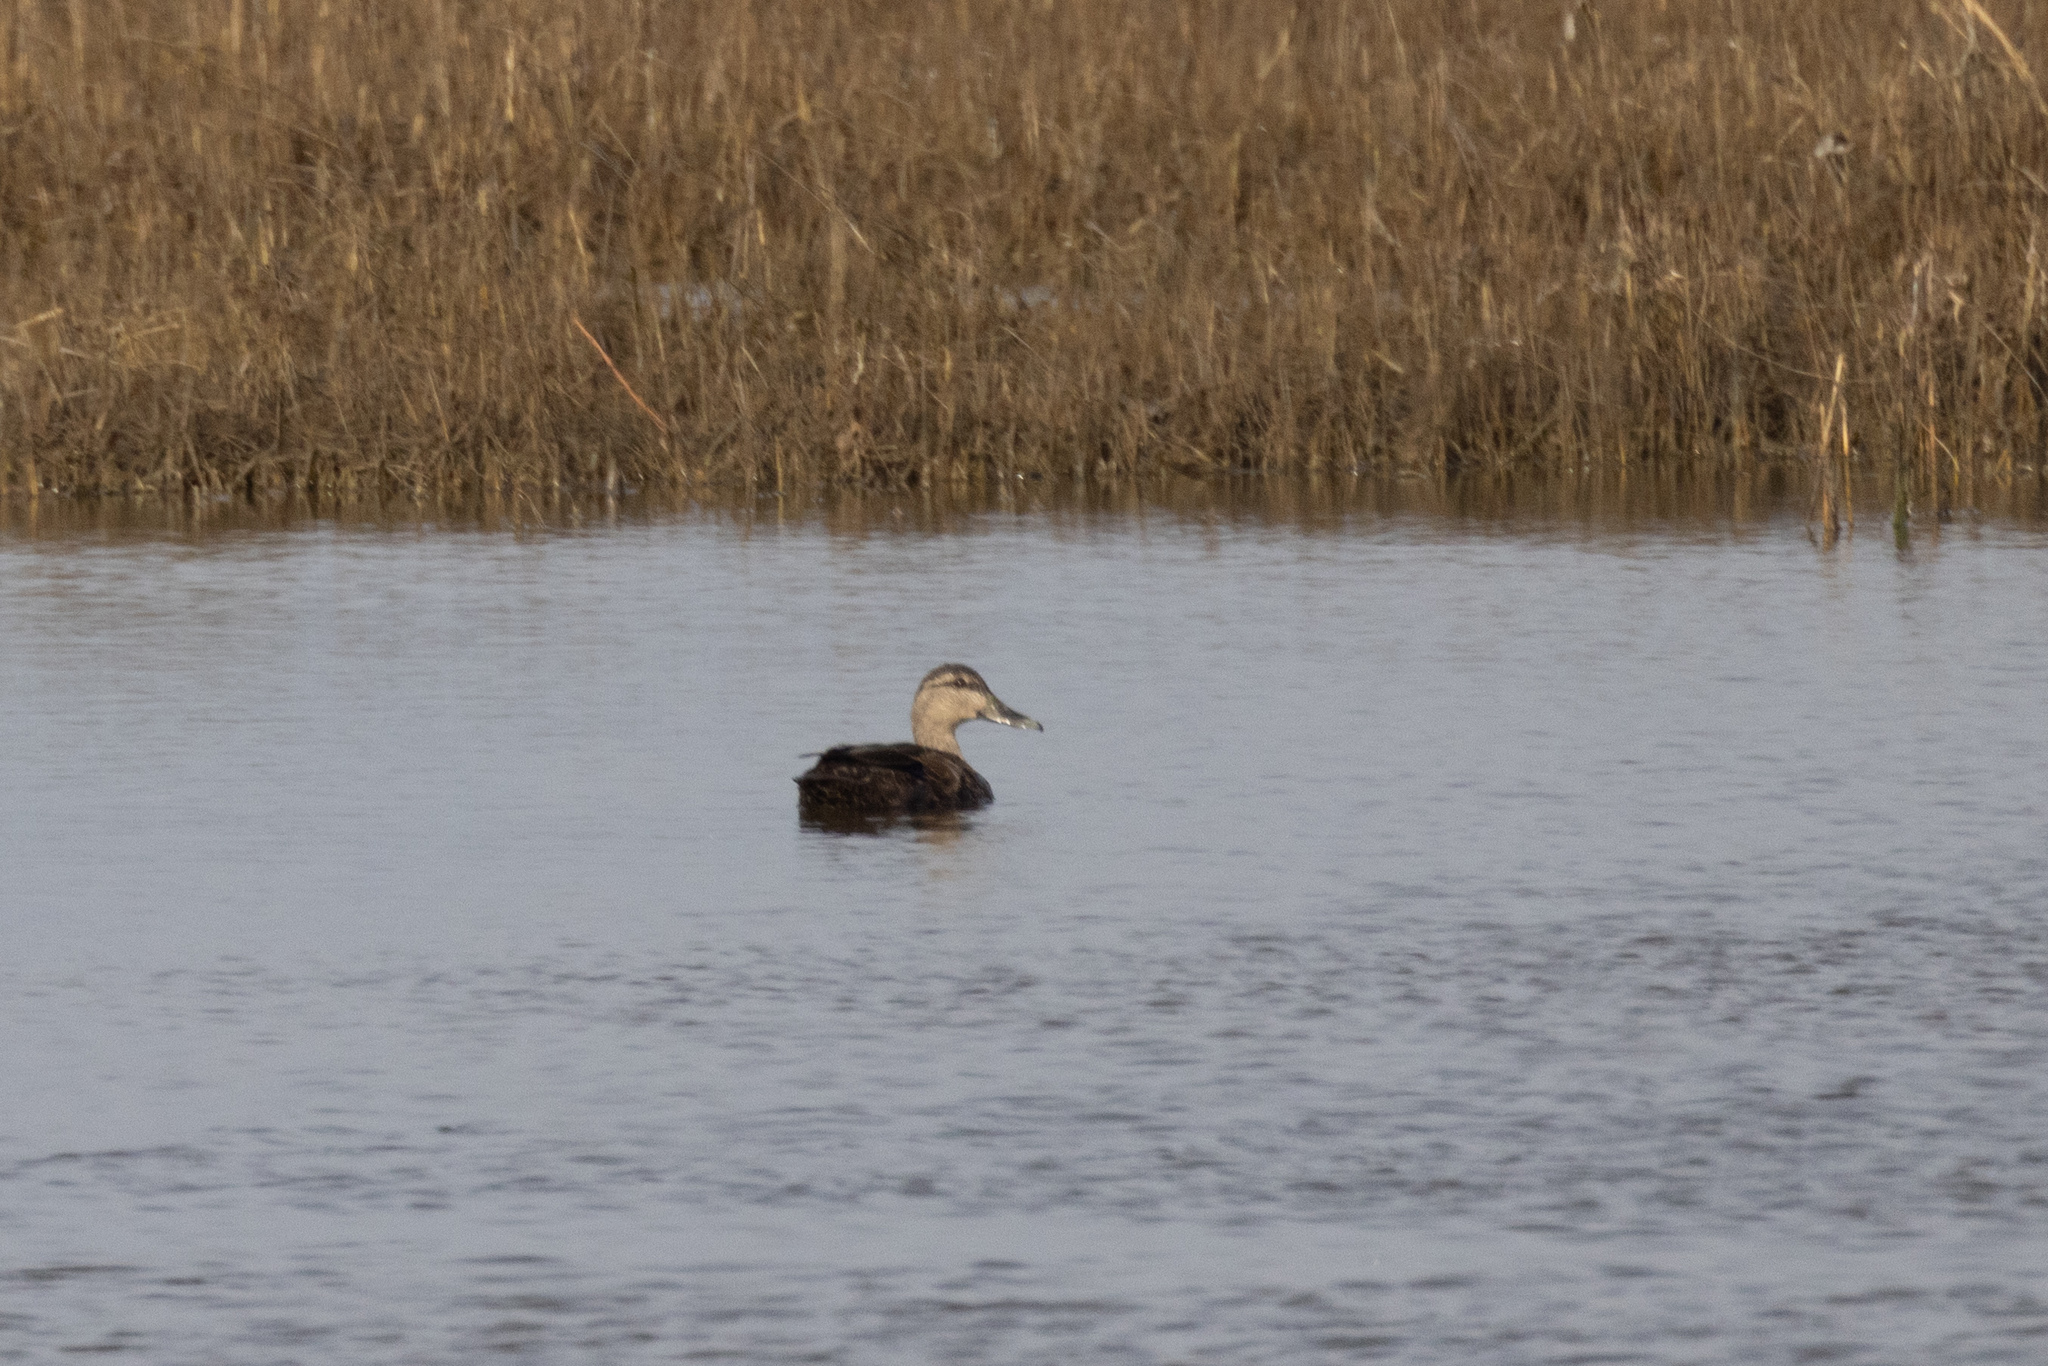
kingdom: Animalia
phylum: Chordata
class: Aves
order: Anseriformes
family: Anatidae
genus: Anas
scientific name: Anas rubripes
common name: American black duck
